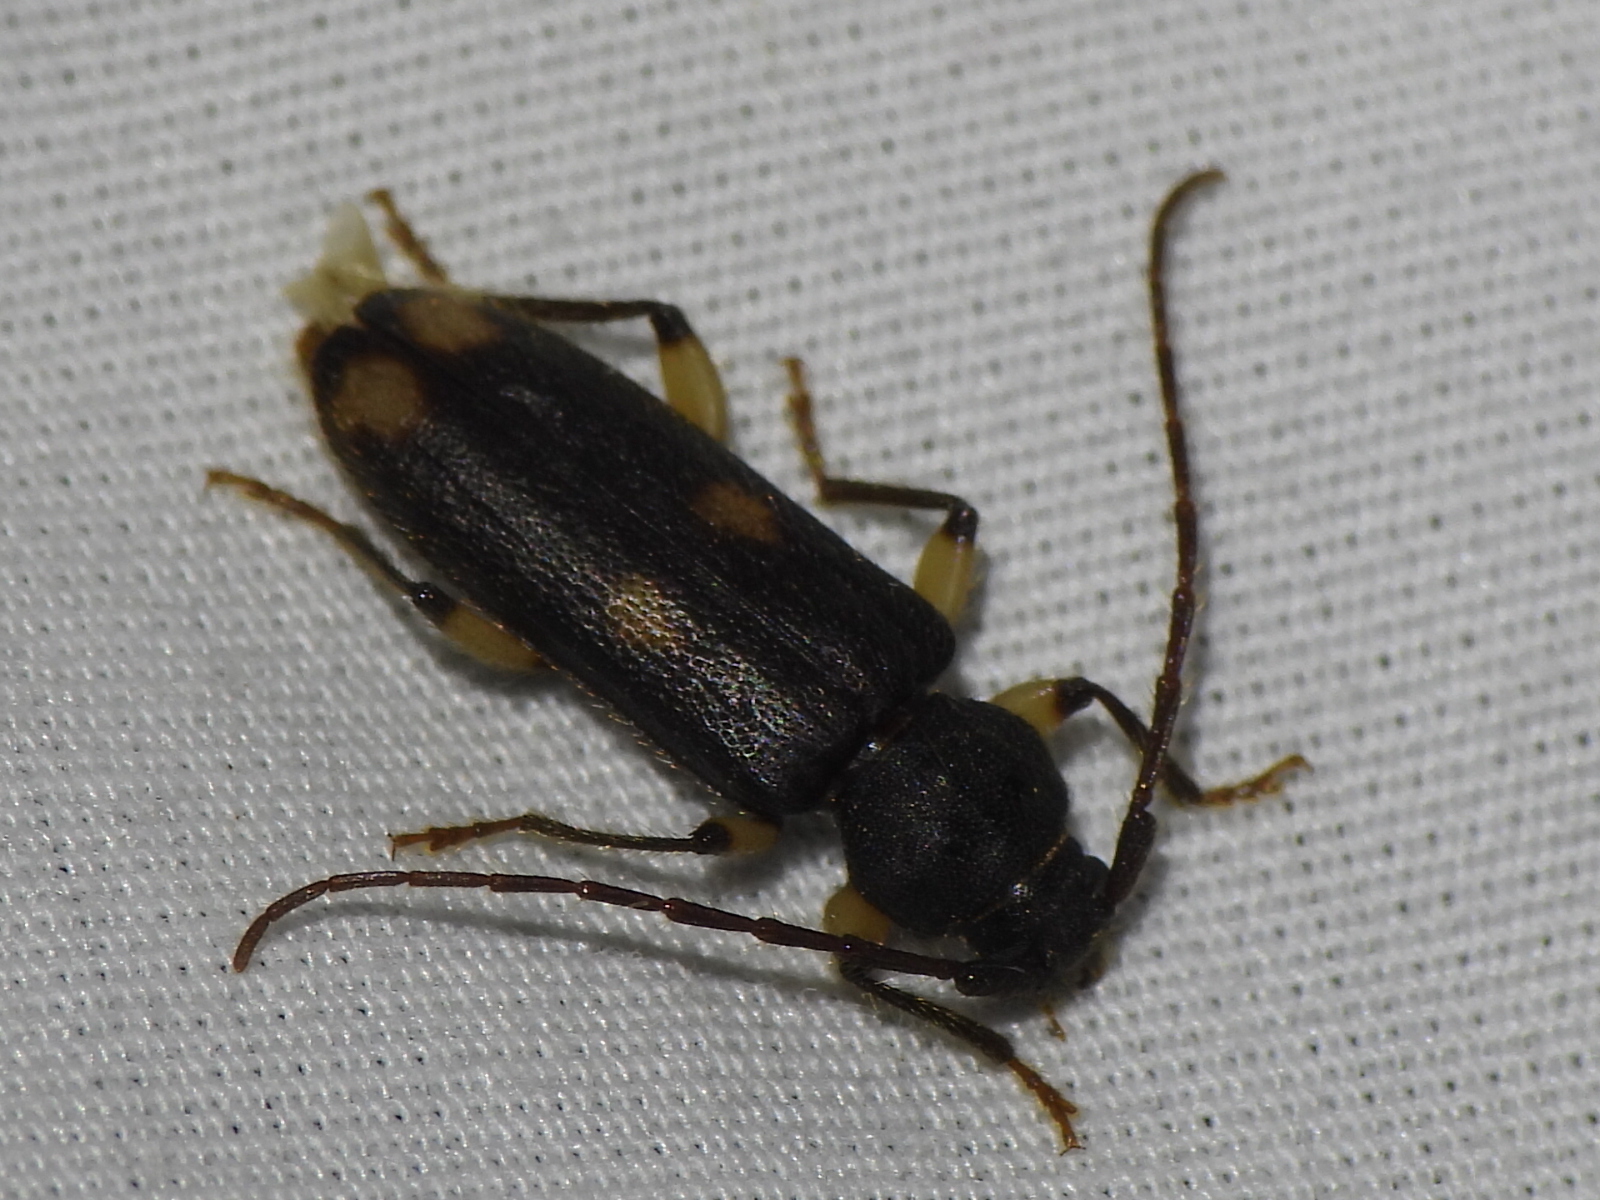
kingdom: Animalia
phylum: Arthropoda
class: Insecta
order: Coleoptera
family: Cerambycidae
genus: Tylonotus
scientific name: Tylonotus bimaculatus
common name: Ash and privet borer
